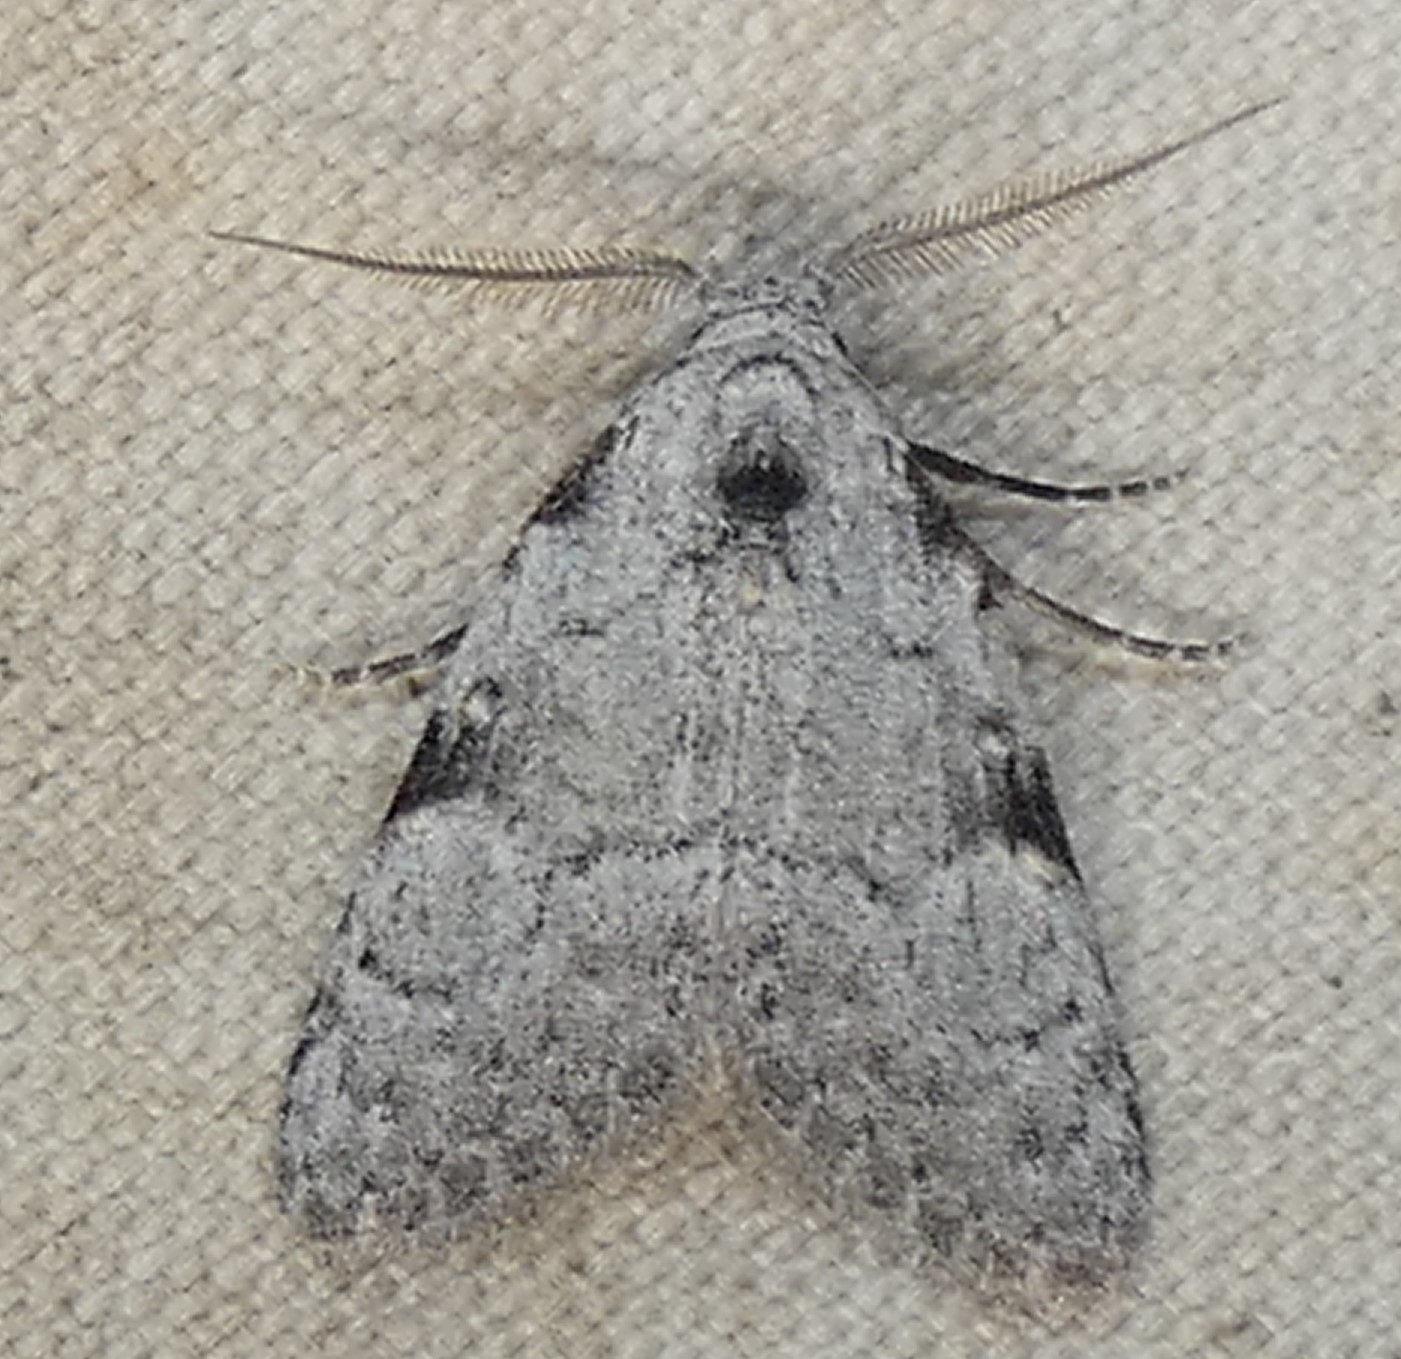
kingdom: Animalia
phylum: Arthropoda
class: Insecta
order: Lepidoptera
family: Nolidae
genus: Meganola
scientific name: Meganola minuscula
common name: Confused meganola moth
